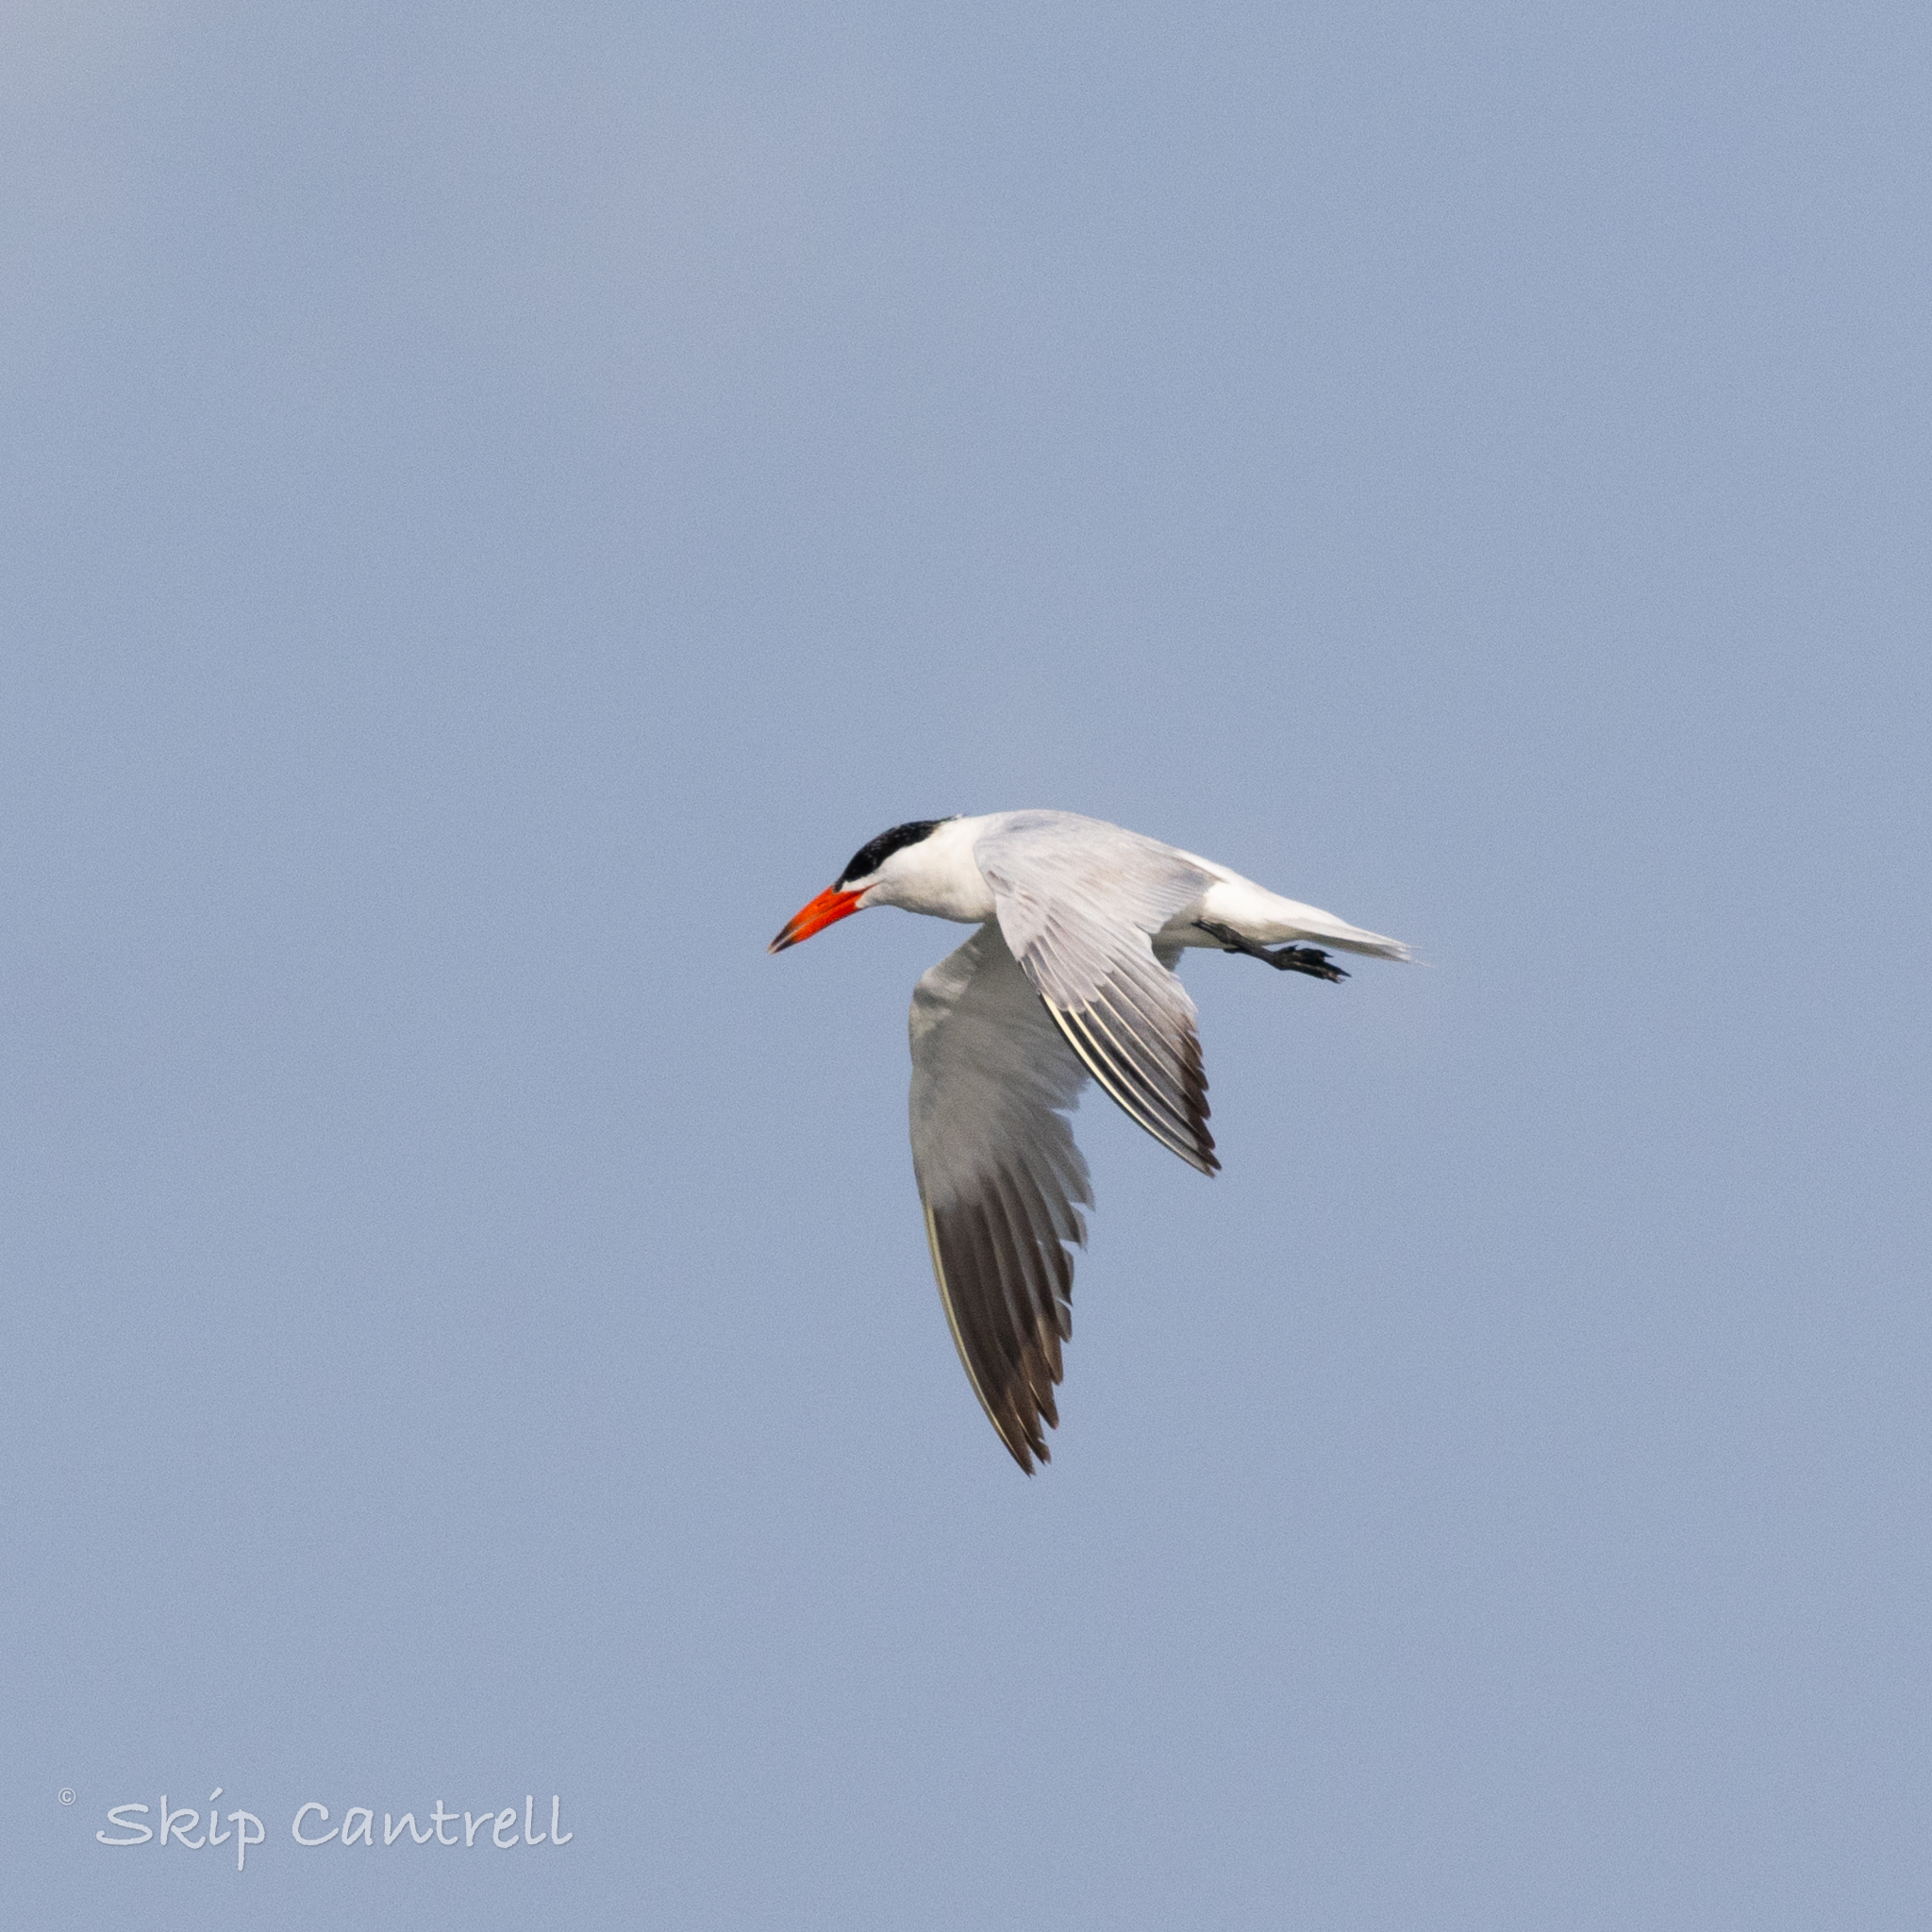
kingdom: Animalia
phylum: Chordata
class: Aves
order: Charadriiformes
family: Laridae
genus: Hydroprogne
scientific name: Hydroprogne caspia
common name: Caspian tern
